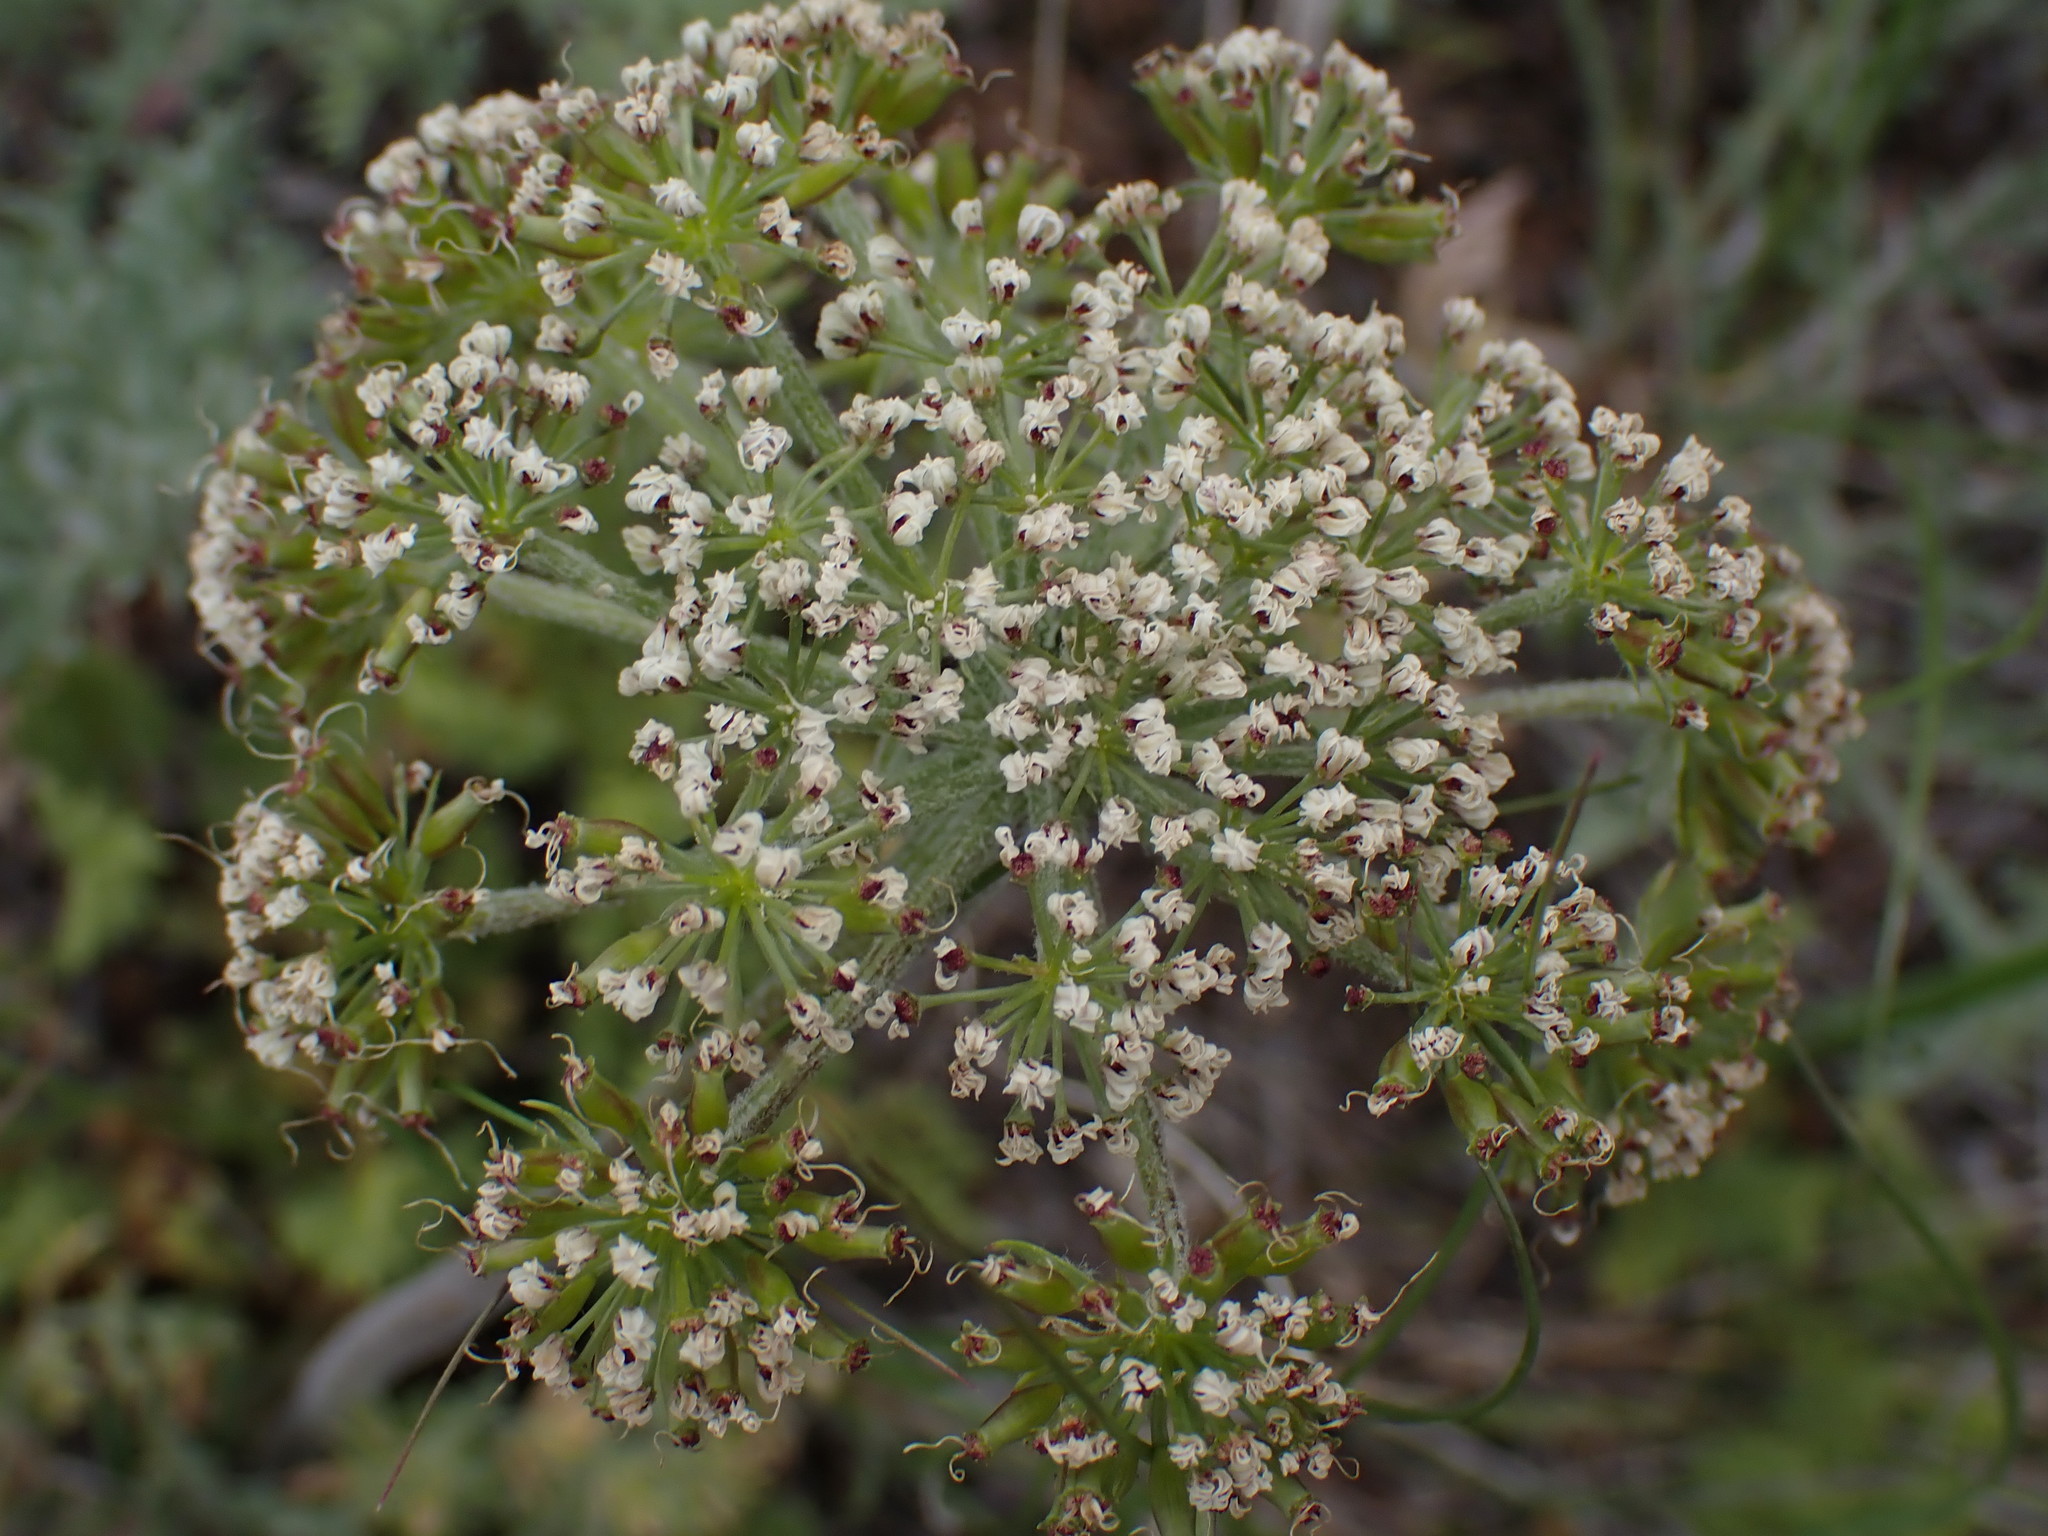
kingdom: Plantae
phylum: Tracheophyta
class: Magnoliopsida
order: Apiales
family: Apiaceae
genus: Lomatium
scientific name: Lomatium macrocarpum
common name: Big-seed biscuitroot
